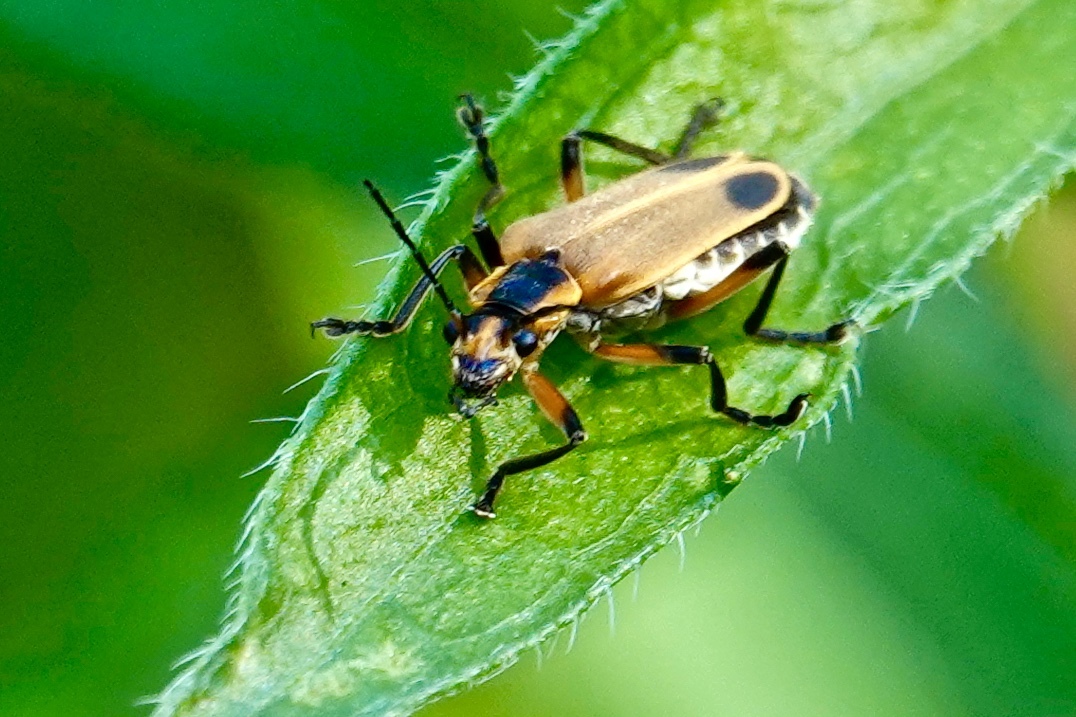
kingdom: Animalia
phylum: Arthropoda
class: Insecta
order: Coleoptera
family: Cantharidae
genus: Chauliognathus
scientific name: Chauliognathus marginatus
